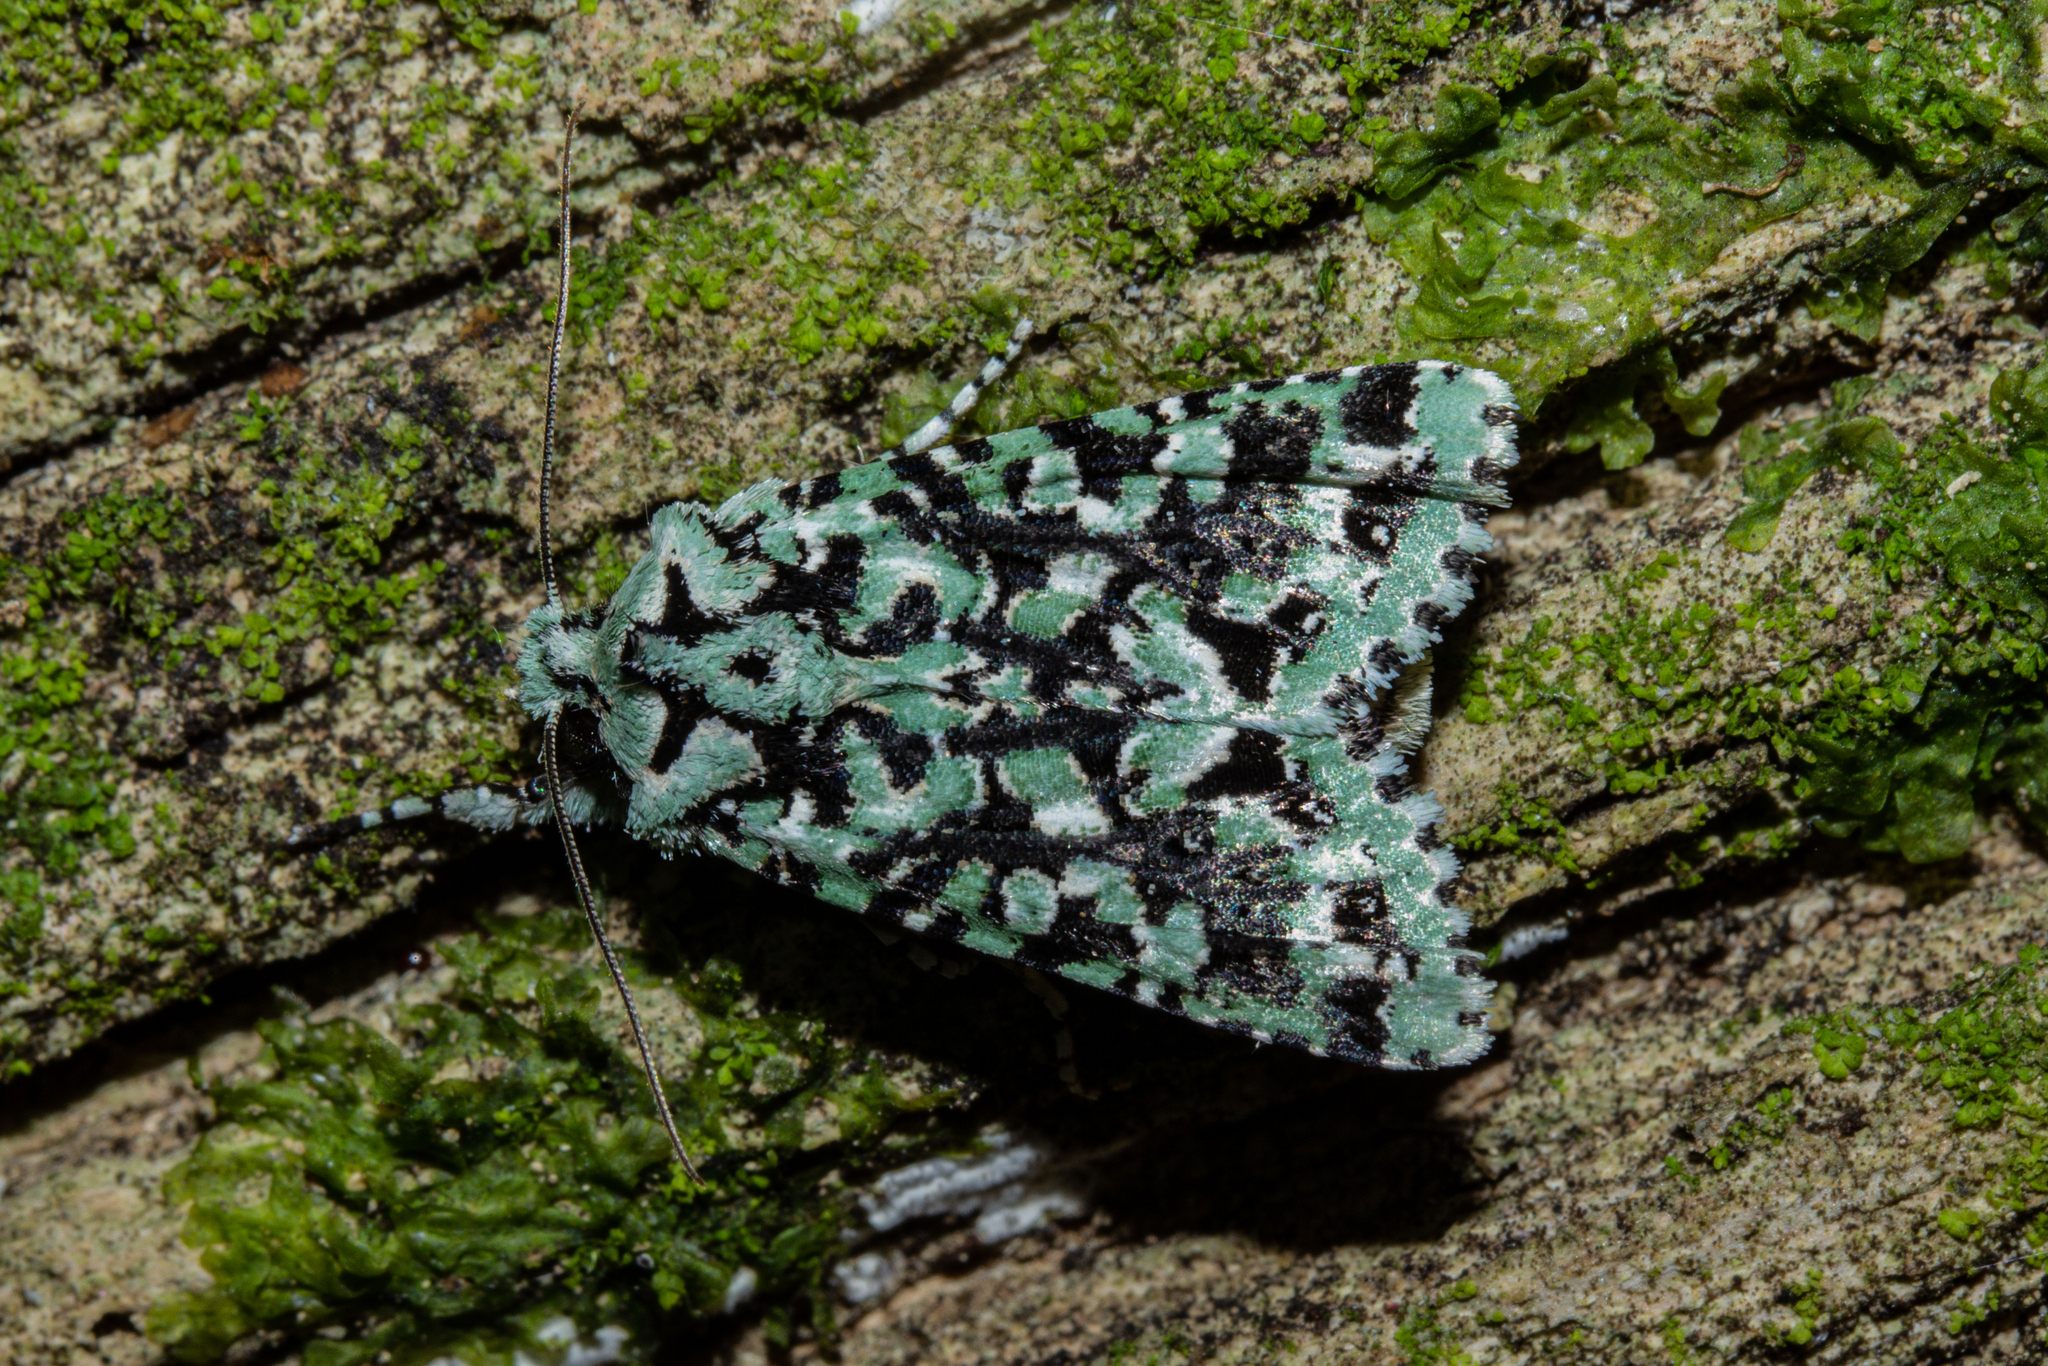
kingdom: Animalia
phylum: Arthropoda
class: Insecta
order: Lepidoptera
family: Noctuidae
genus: Meterana
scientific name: Meterana
